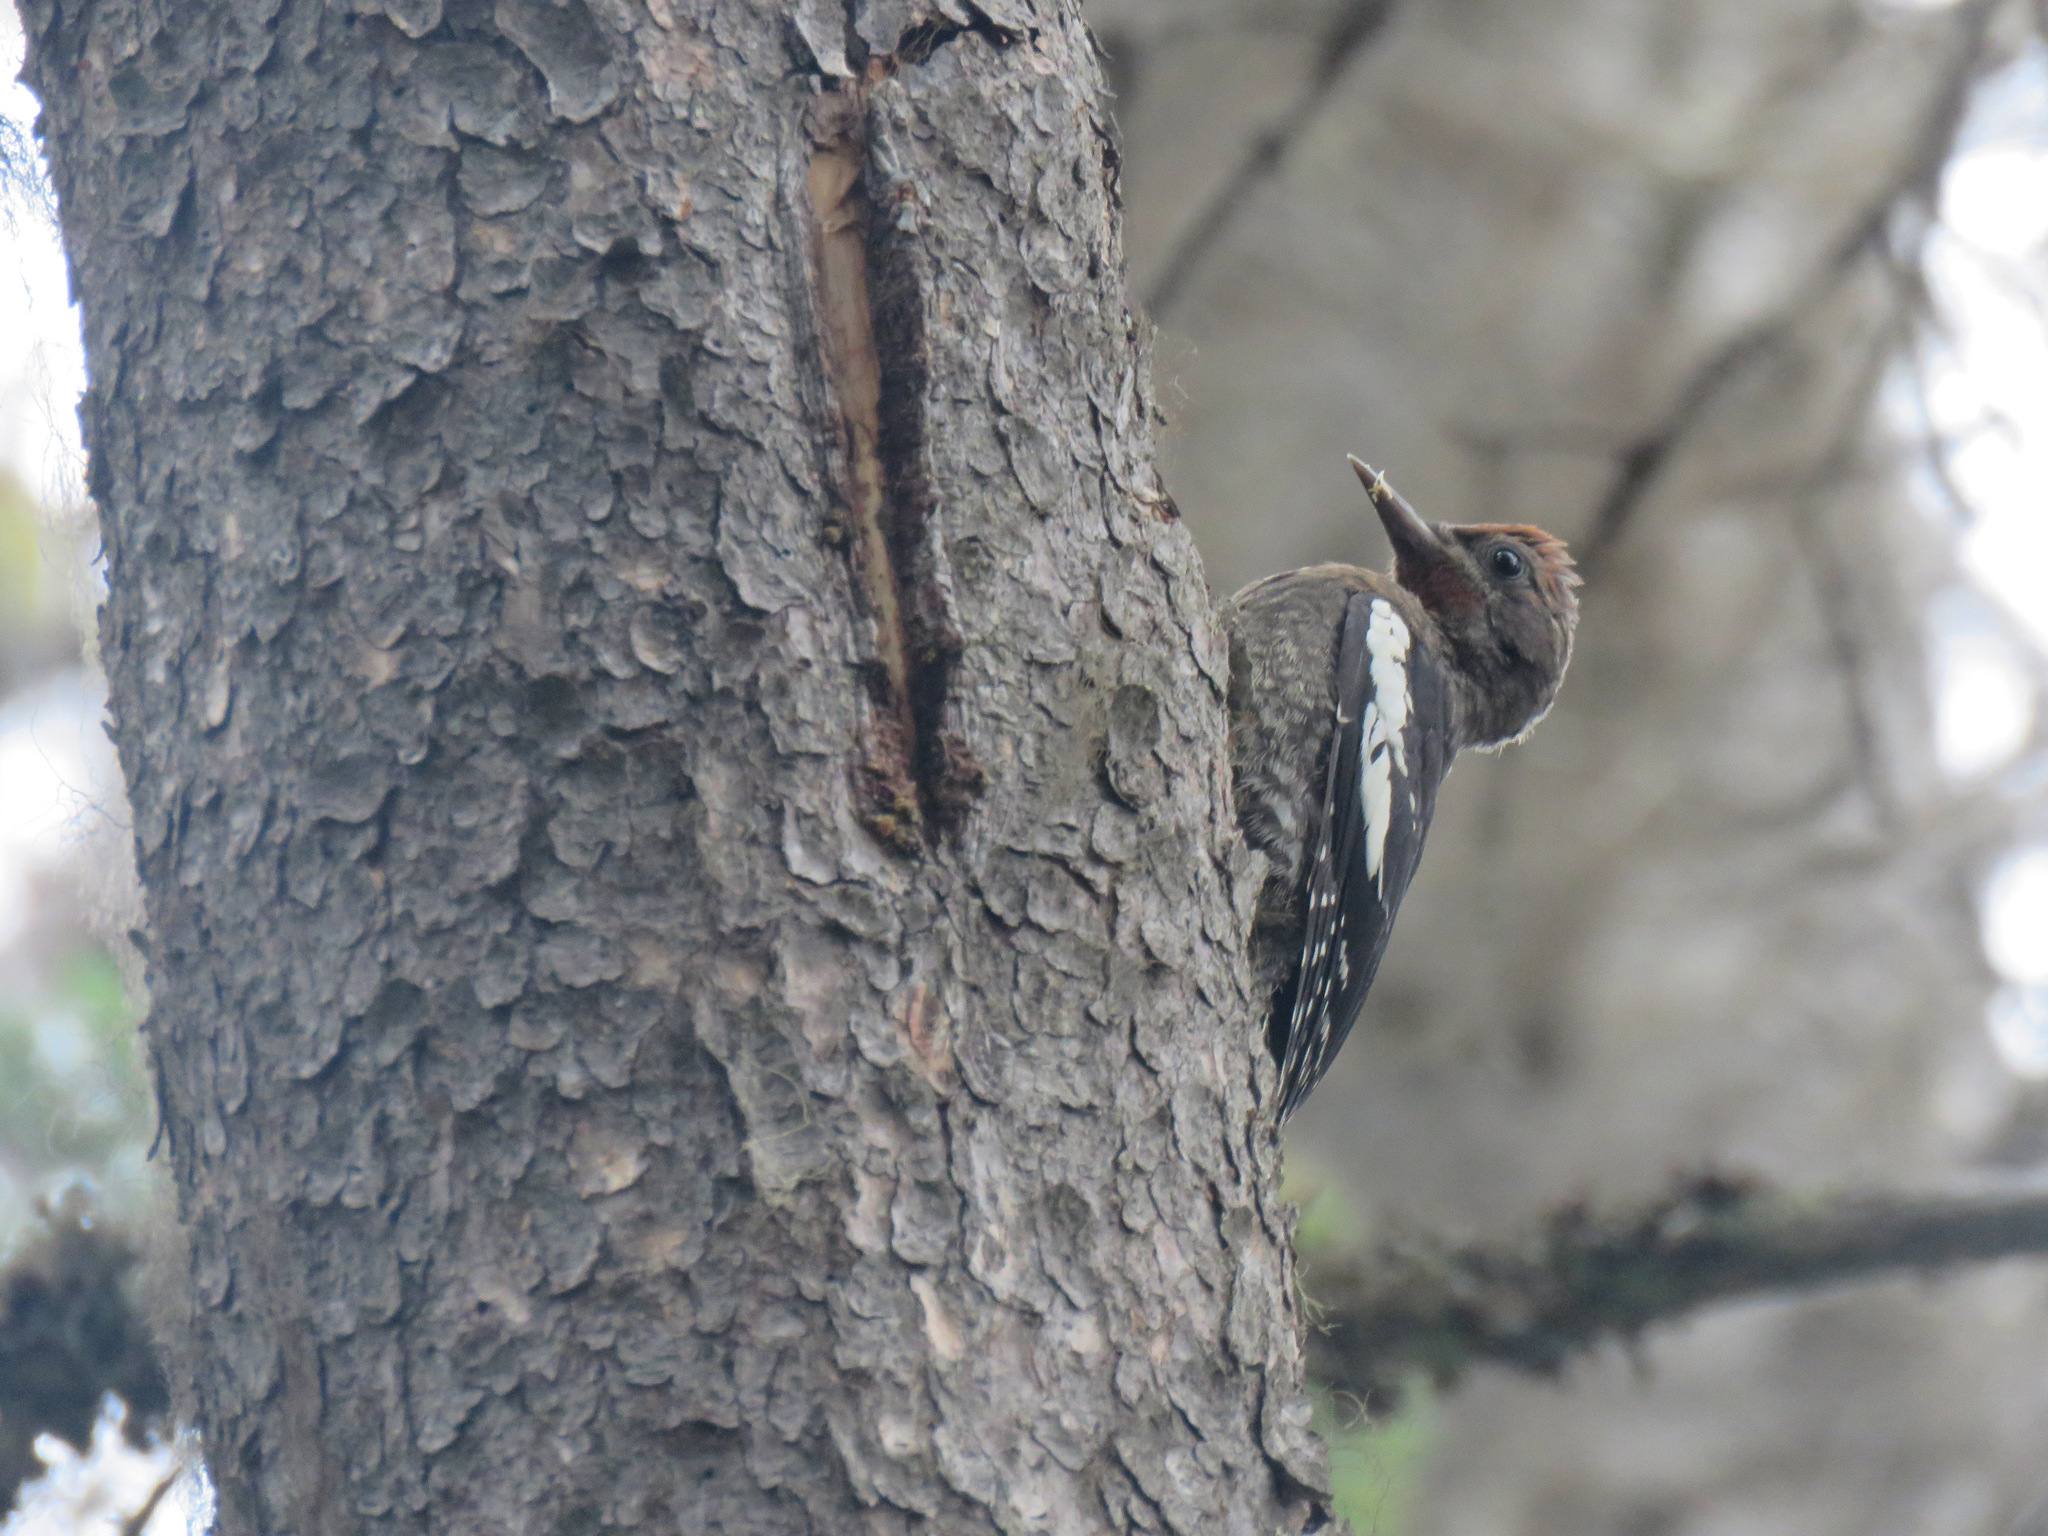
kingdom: Animalia
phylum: Chordata
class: Aves
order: Piciformes
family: Picidae
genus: Sphyrapicus
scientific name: Sphyrapicus ruber
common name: Red-breasted sapsucker
